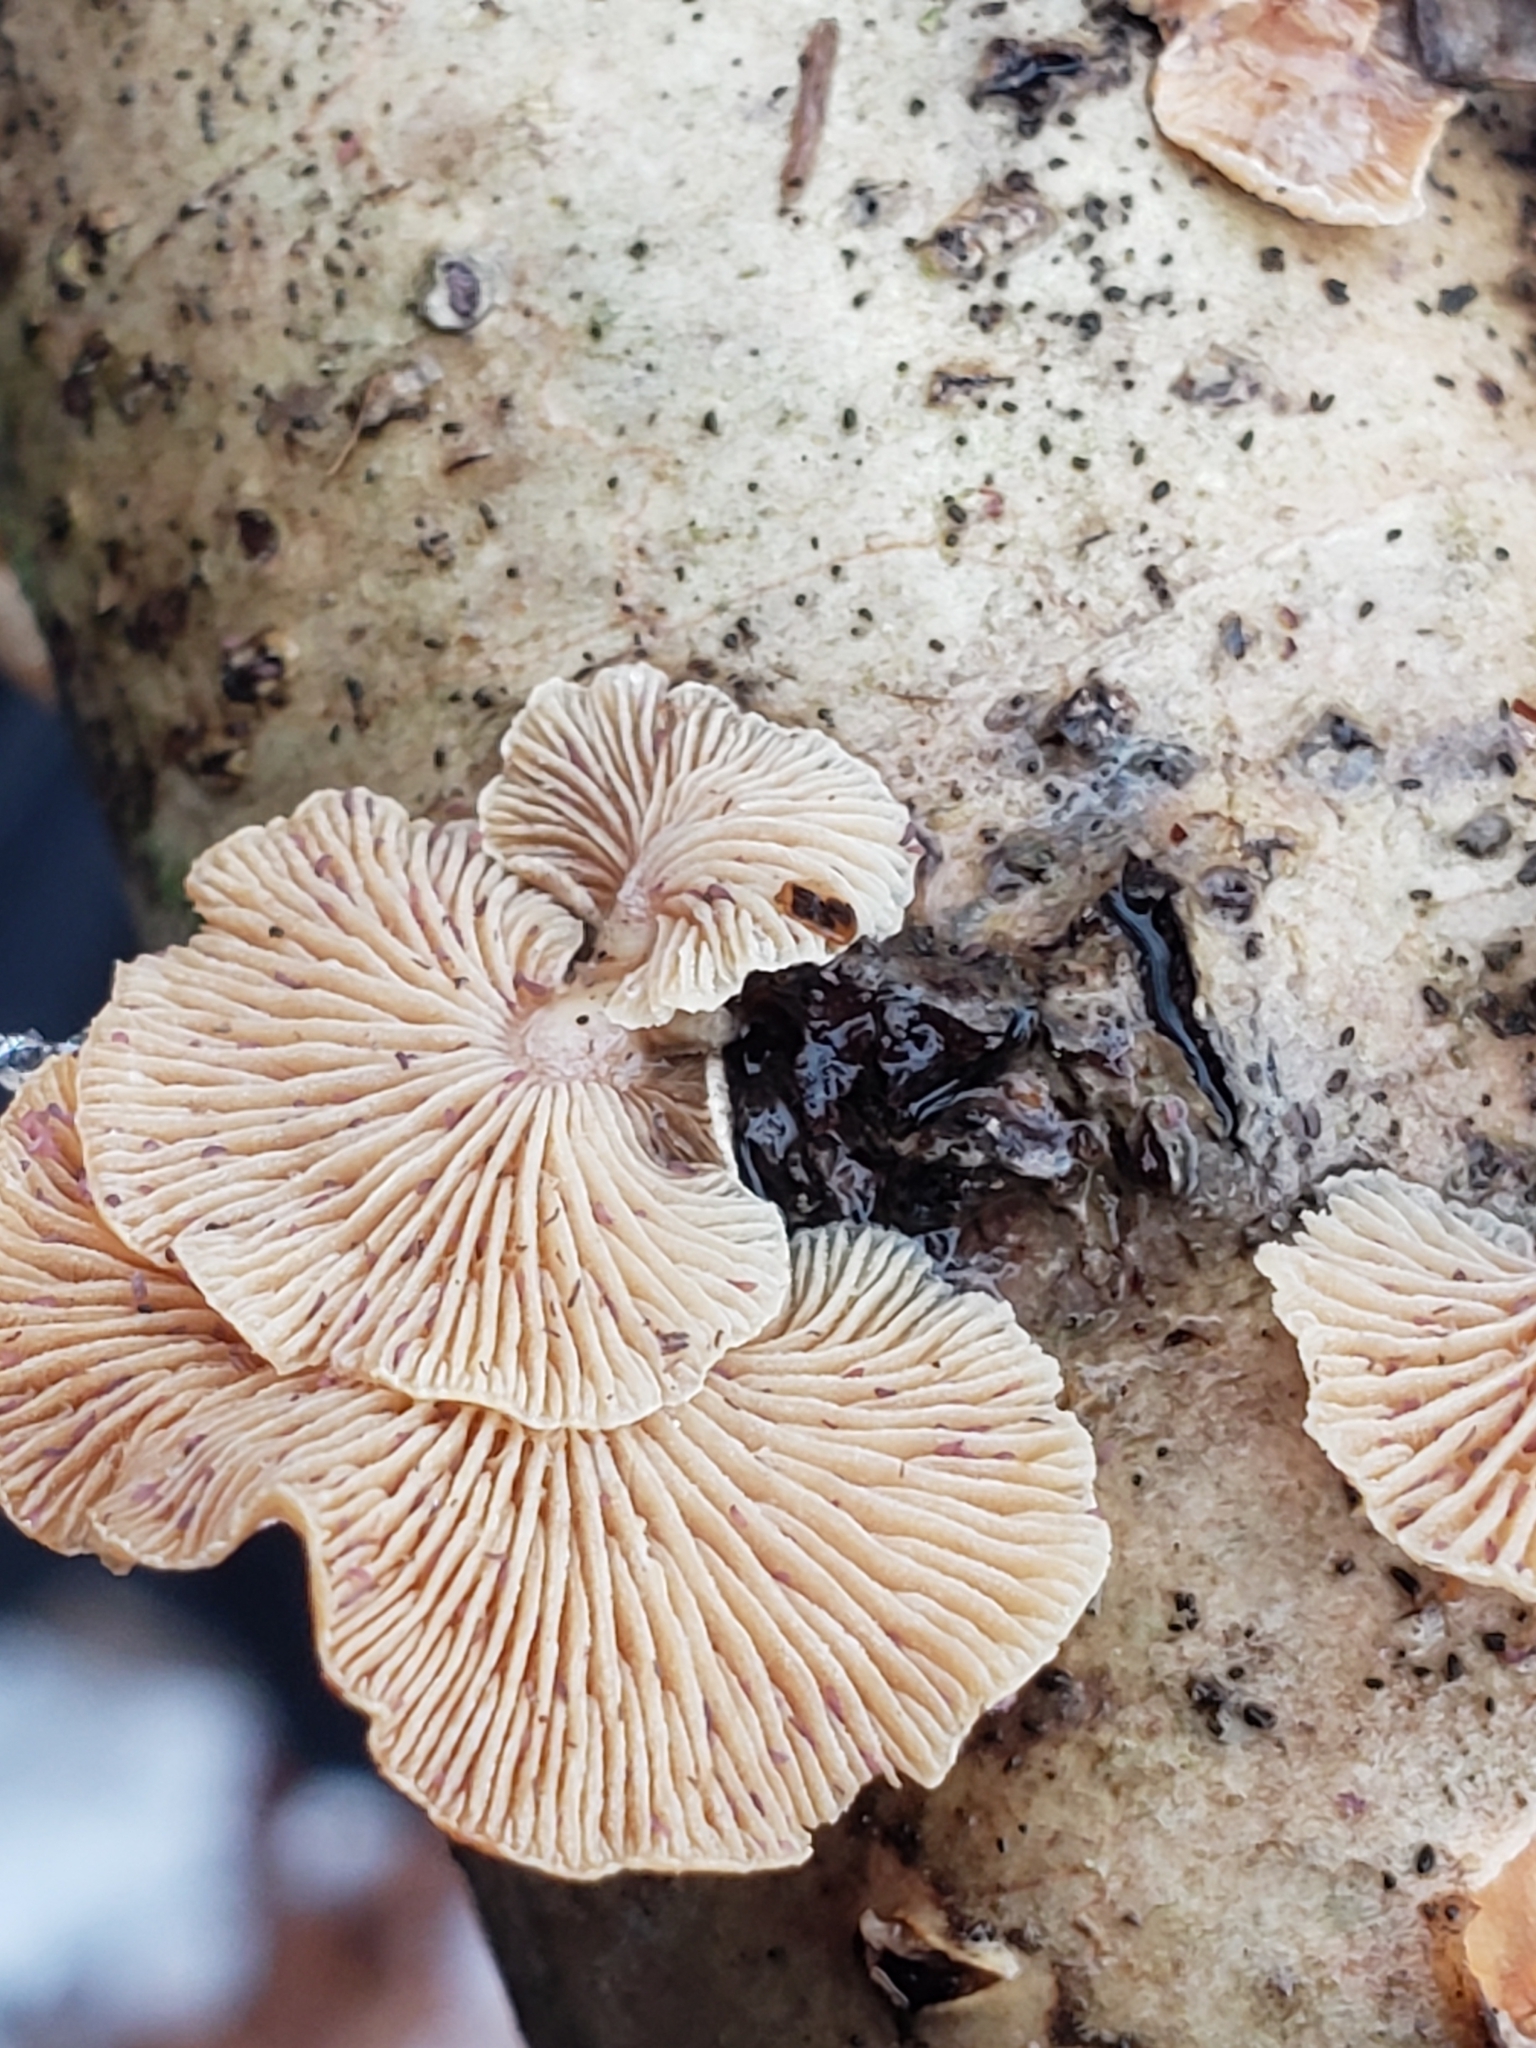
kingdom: Fungi
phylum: Basidiomycota
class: Agaricomycetes
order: Agaricales
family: Mycenaceae
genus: Panellus
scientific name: Panellus stipticus
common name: Bitter oysterling
